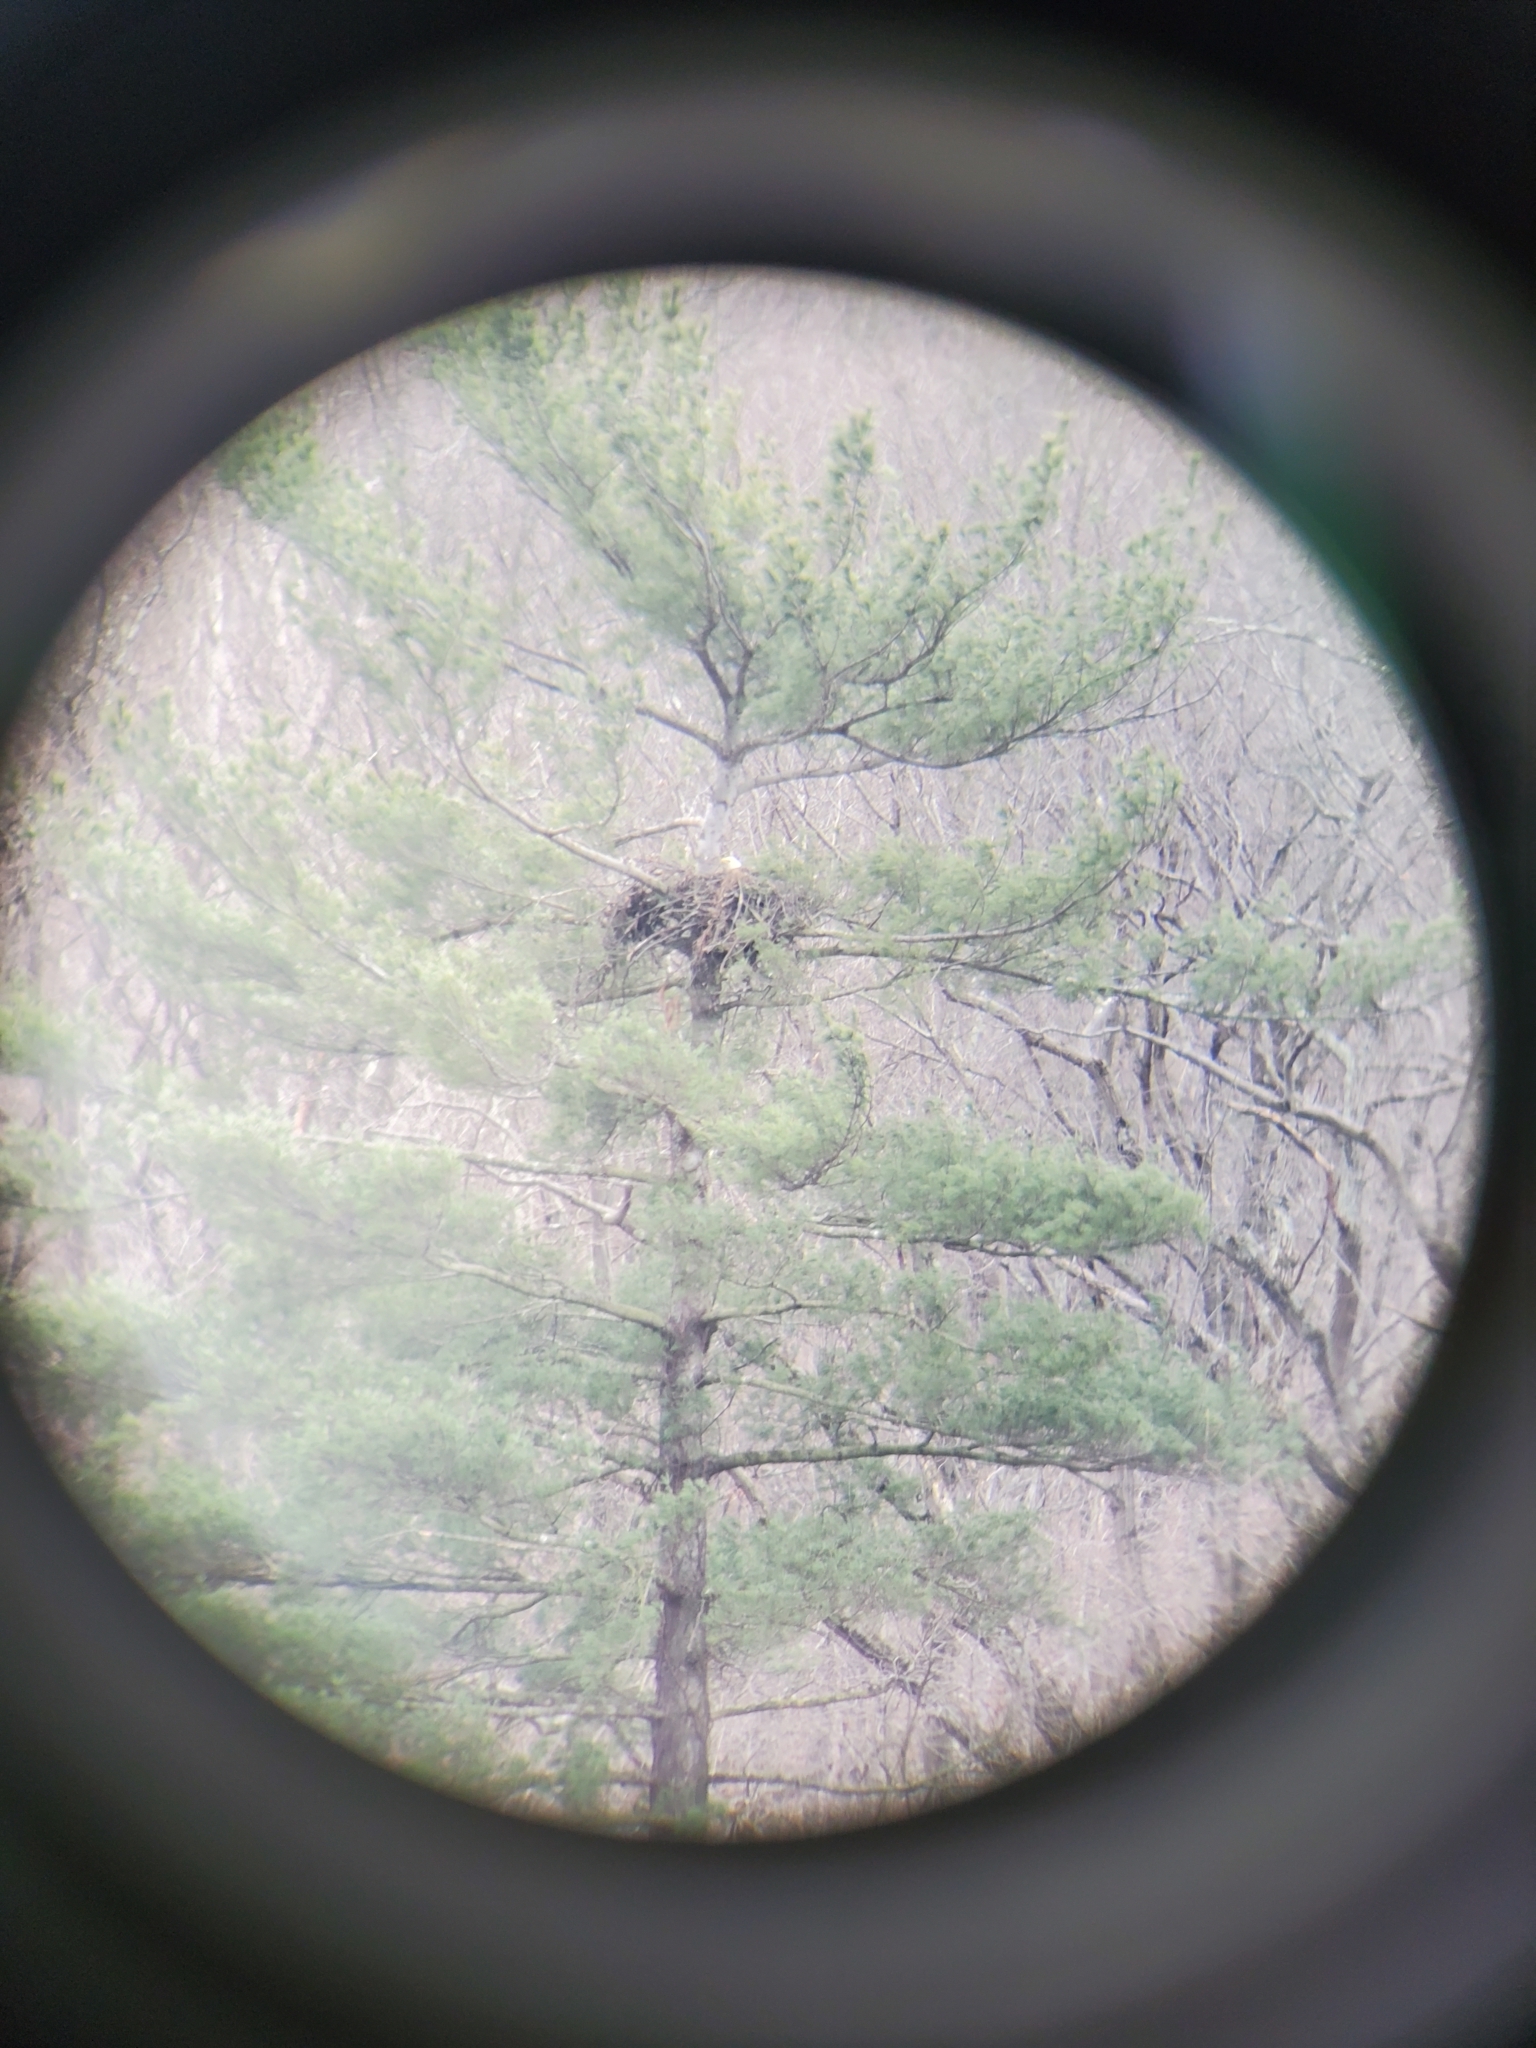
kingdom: Animalia
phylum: Chordata
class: Aves
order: Accipitriformes
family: Accipitridae
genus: Haliaeetus
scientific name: Haliaeetus leucocephalus
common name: Bald eagle
